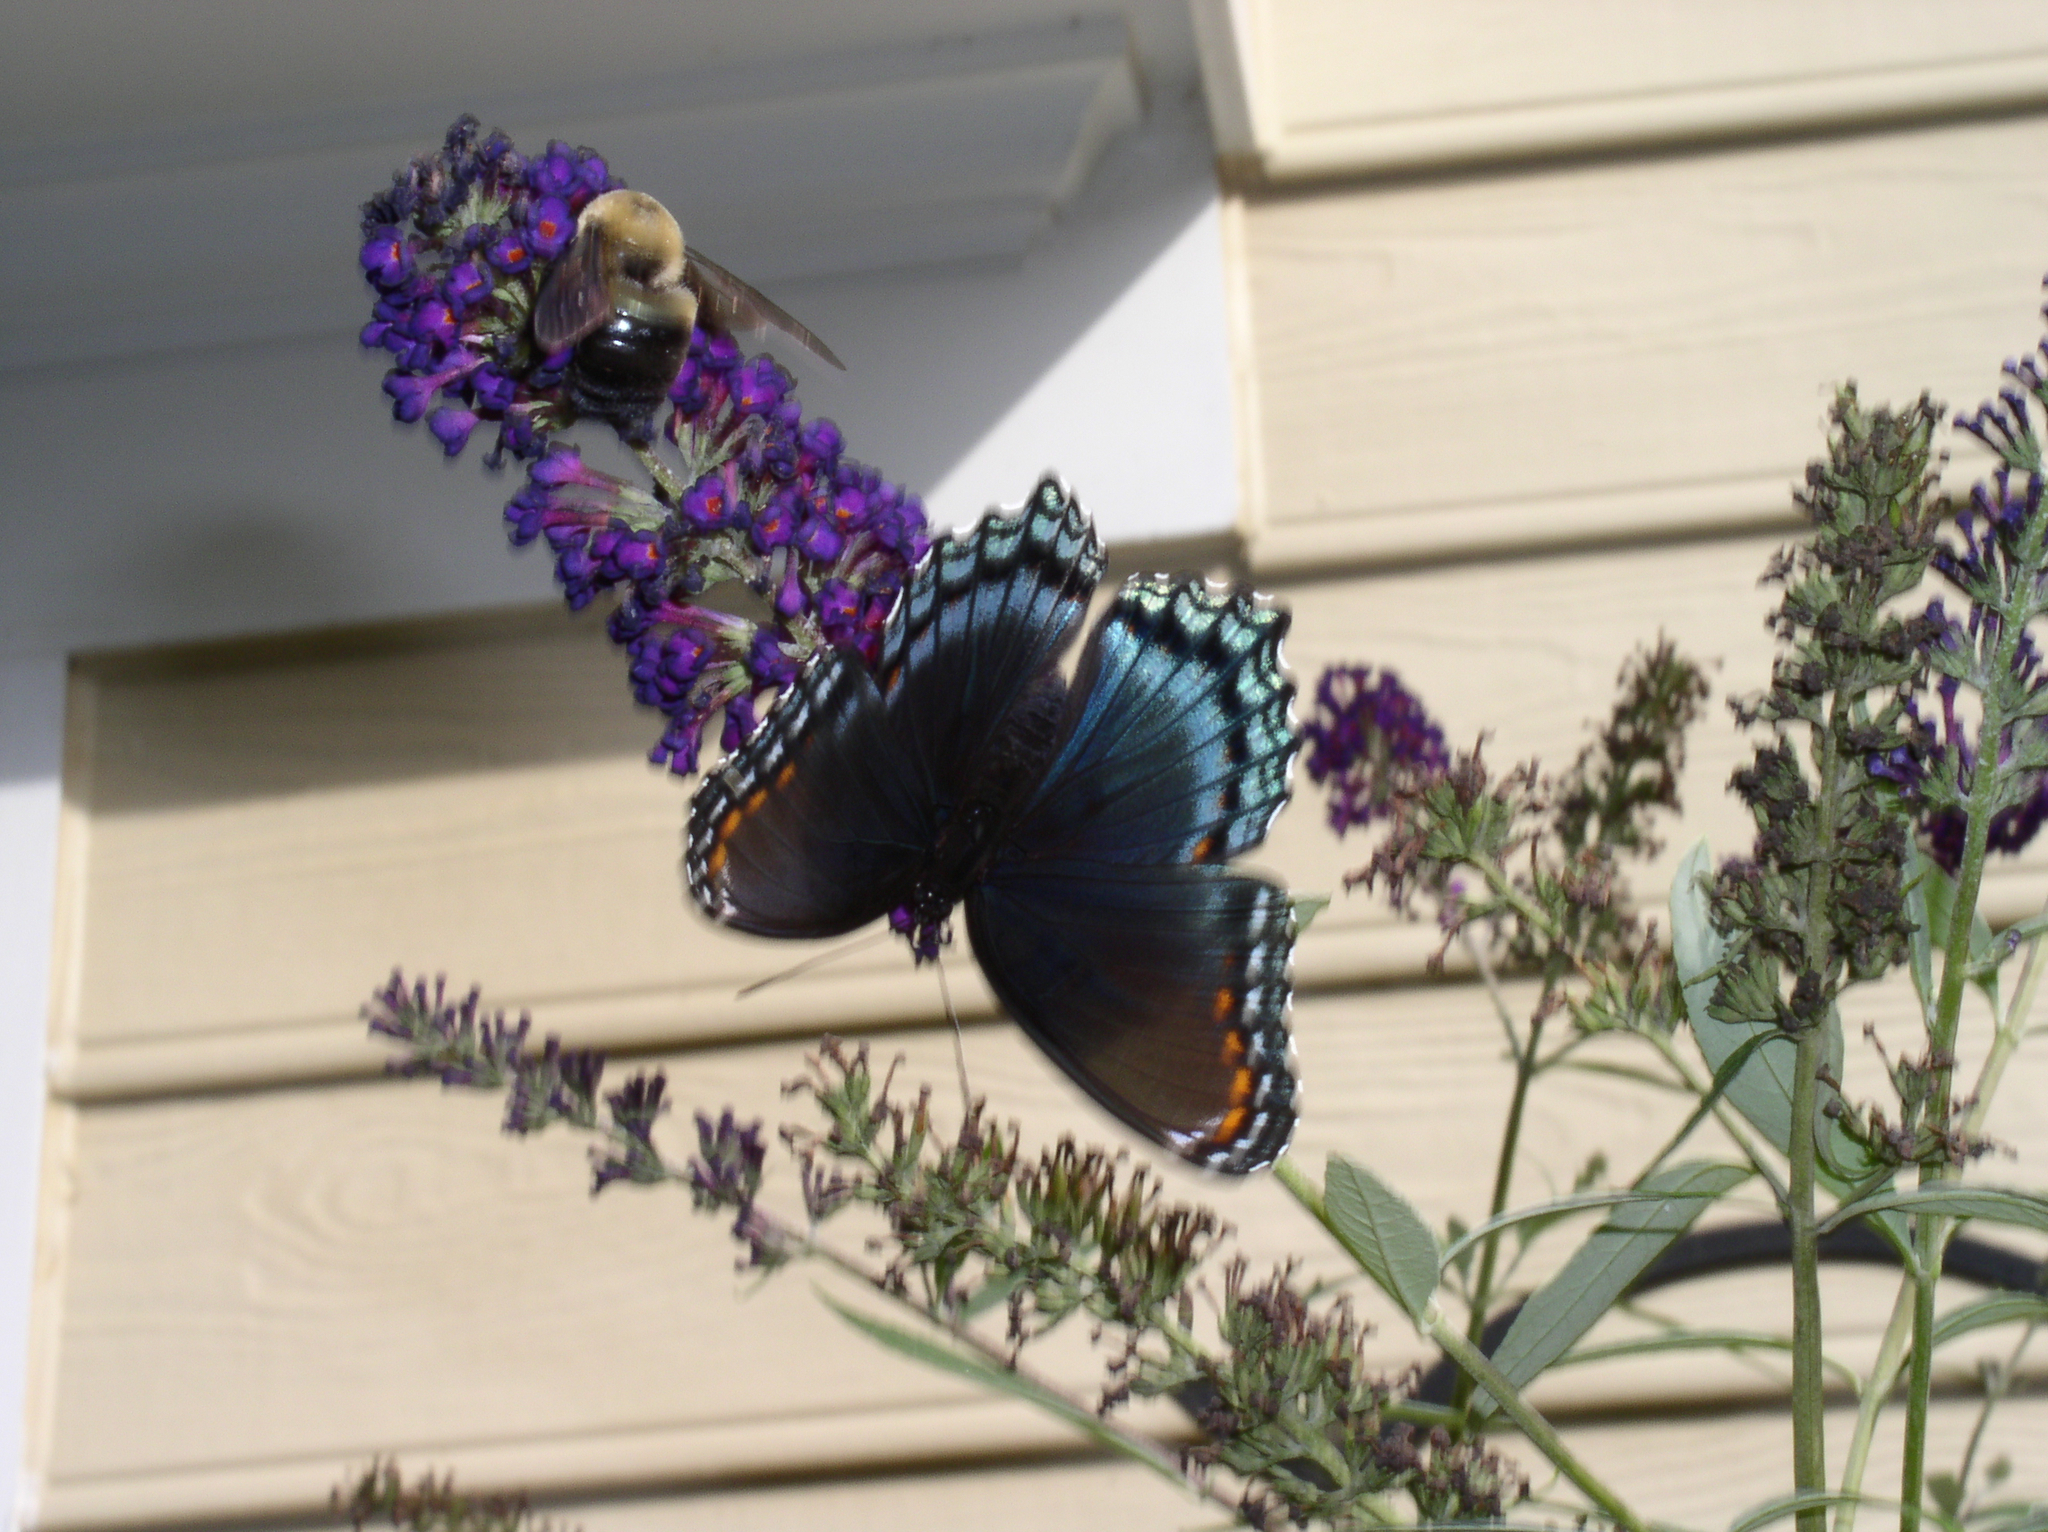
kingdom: Animalia
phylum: Arthropoda
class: Insecta
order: Lepidoptera
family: Nymphalidae
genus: Limenitis
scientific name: Limenitis astyanax
